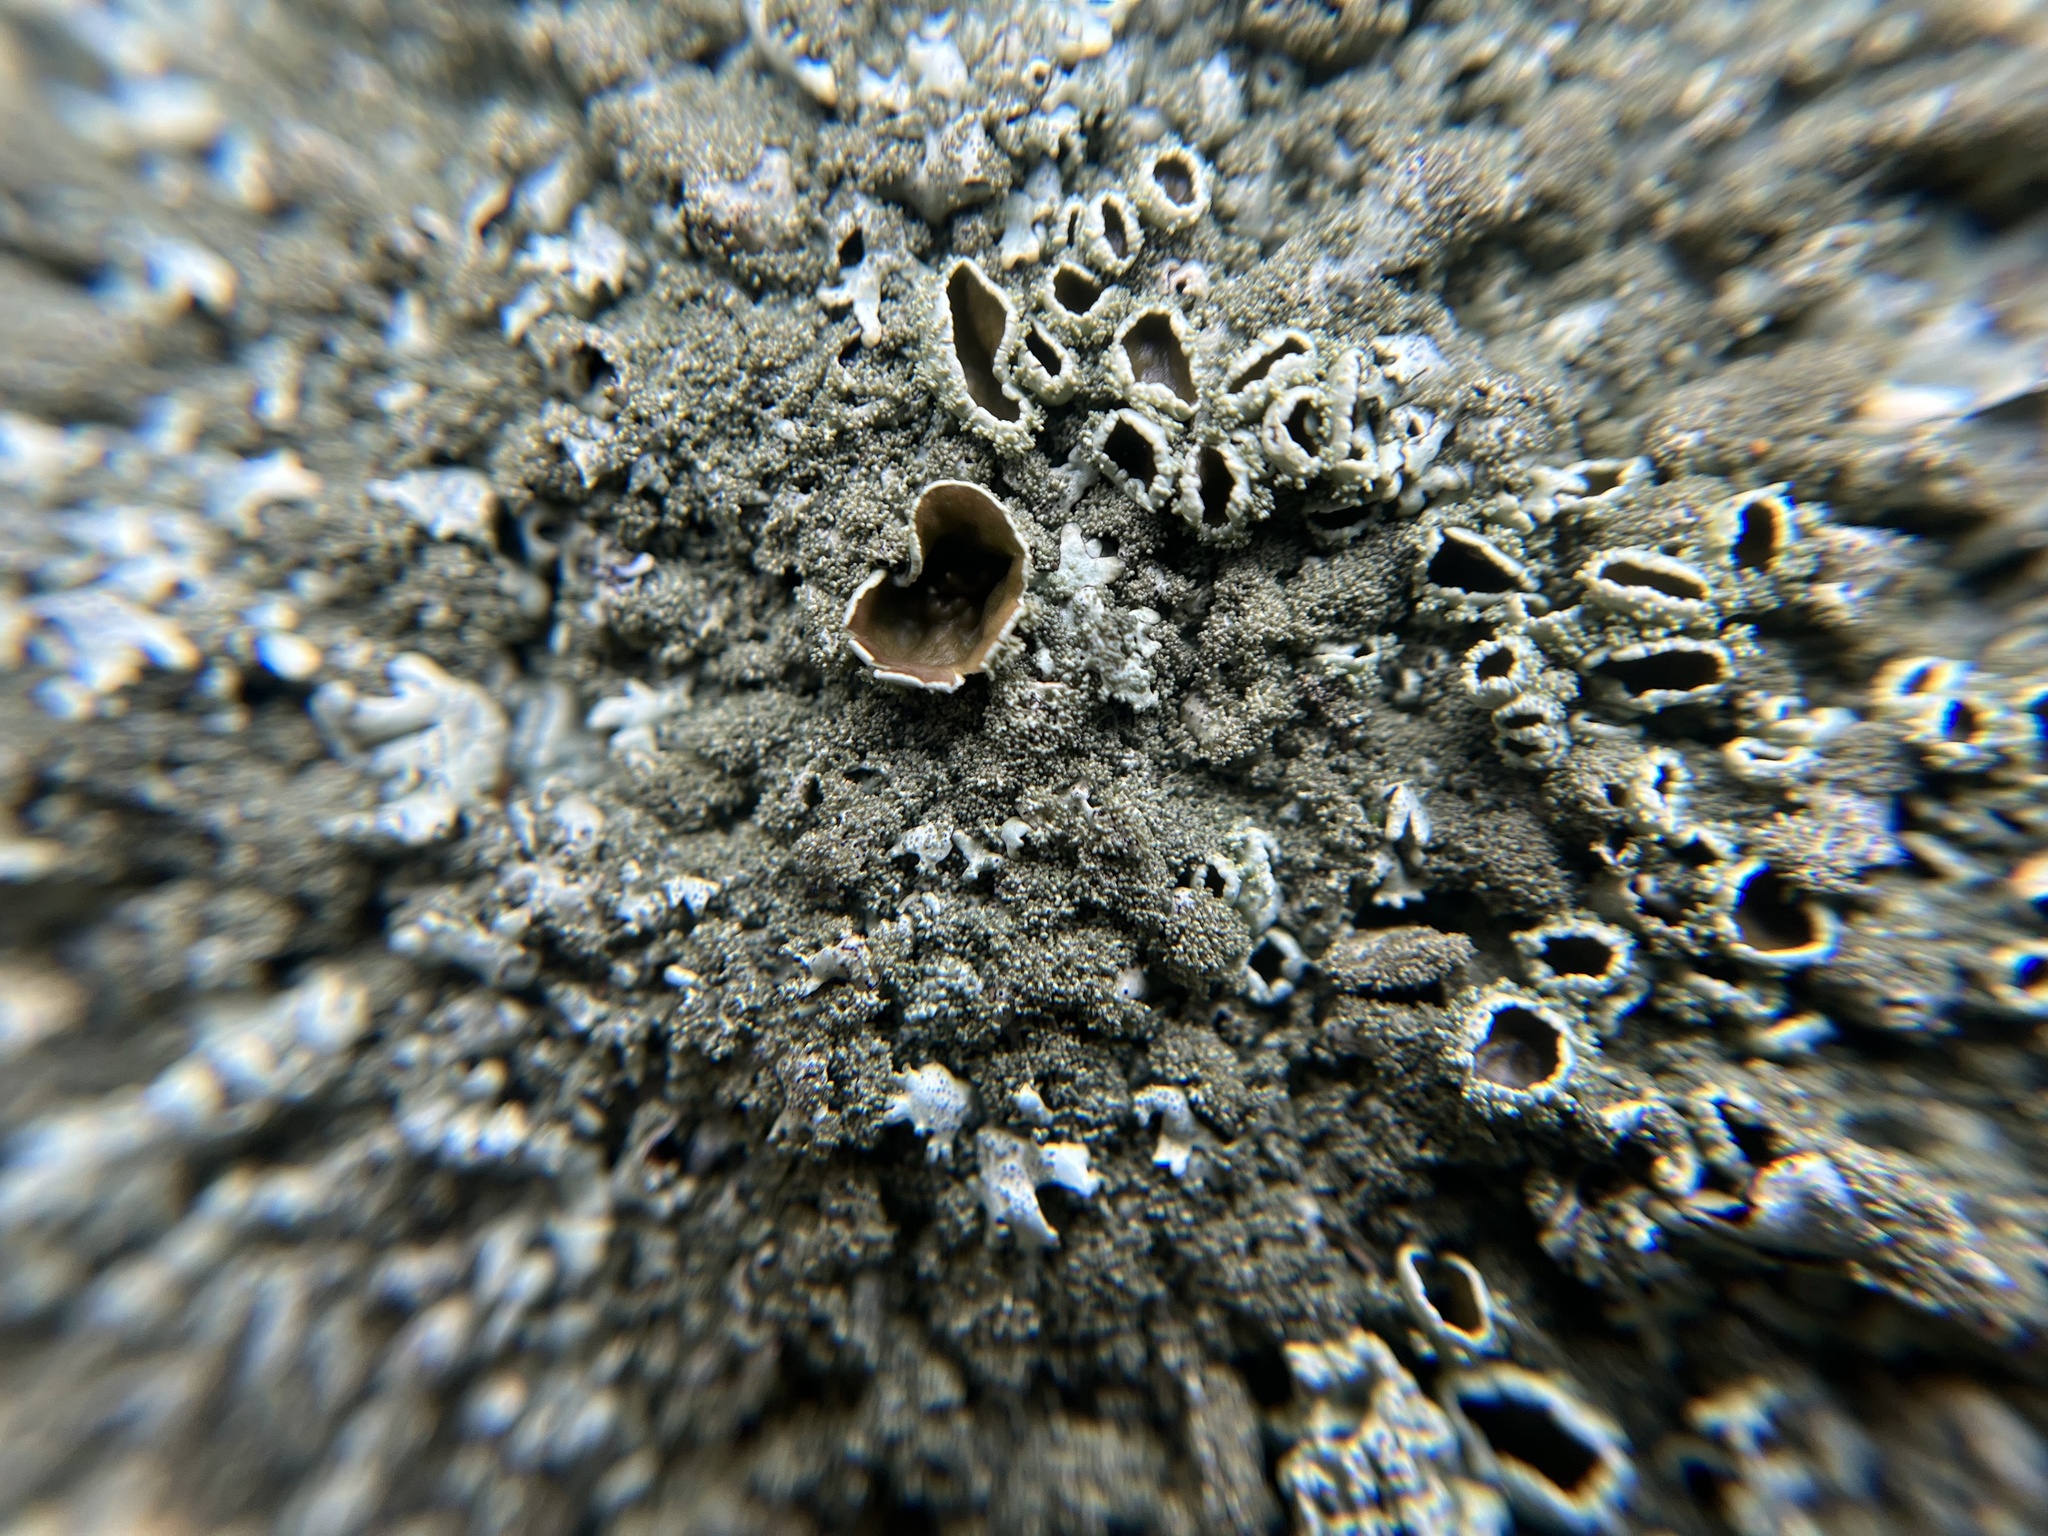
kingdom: Fungi
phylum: Ascomycota
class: Lecanoromycetes
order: Lecanorales
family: Parmeliaceae
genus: Xanthoparmelia
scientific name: Xanthoparmelia conspersa
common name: Peppered rock shield
